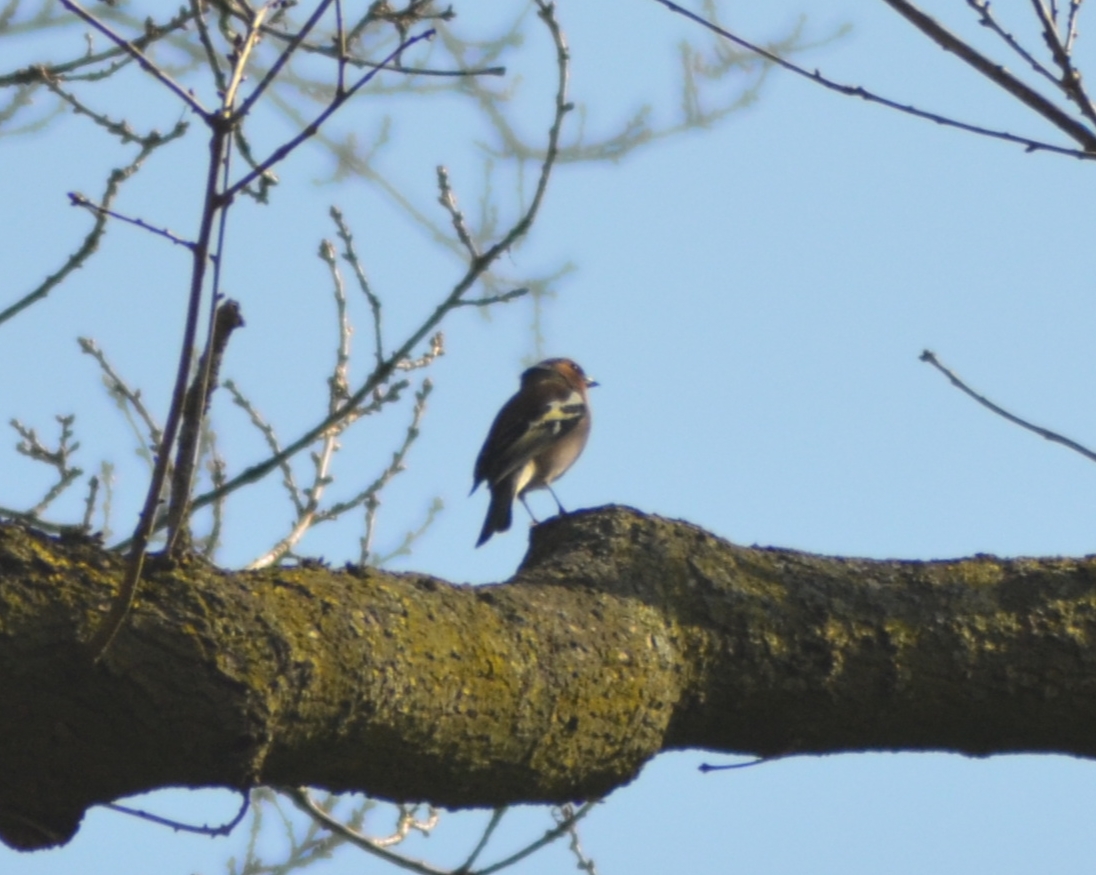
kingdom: Animalia
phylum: Chordata
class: Aves
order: Passeriformes
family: Fringillidae
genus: Fringilla
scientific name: Fringilla coelebs
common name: Common chaffinch
